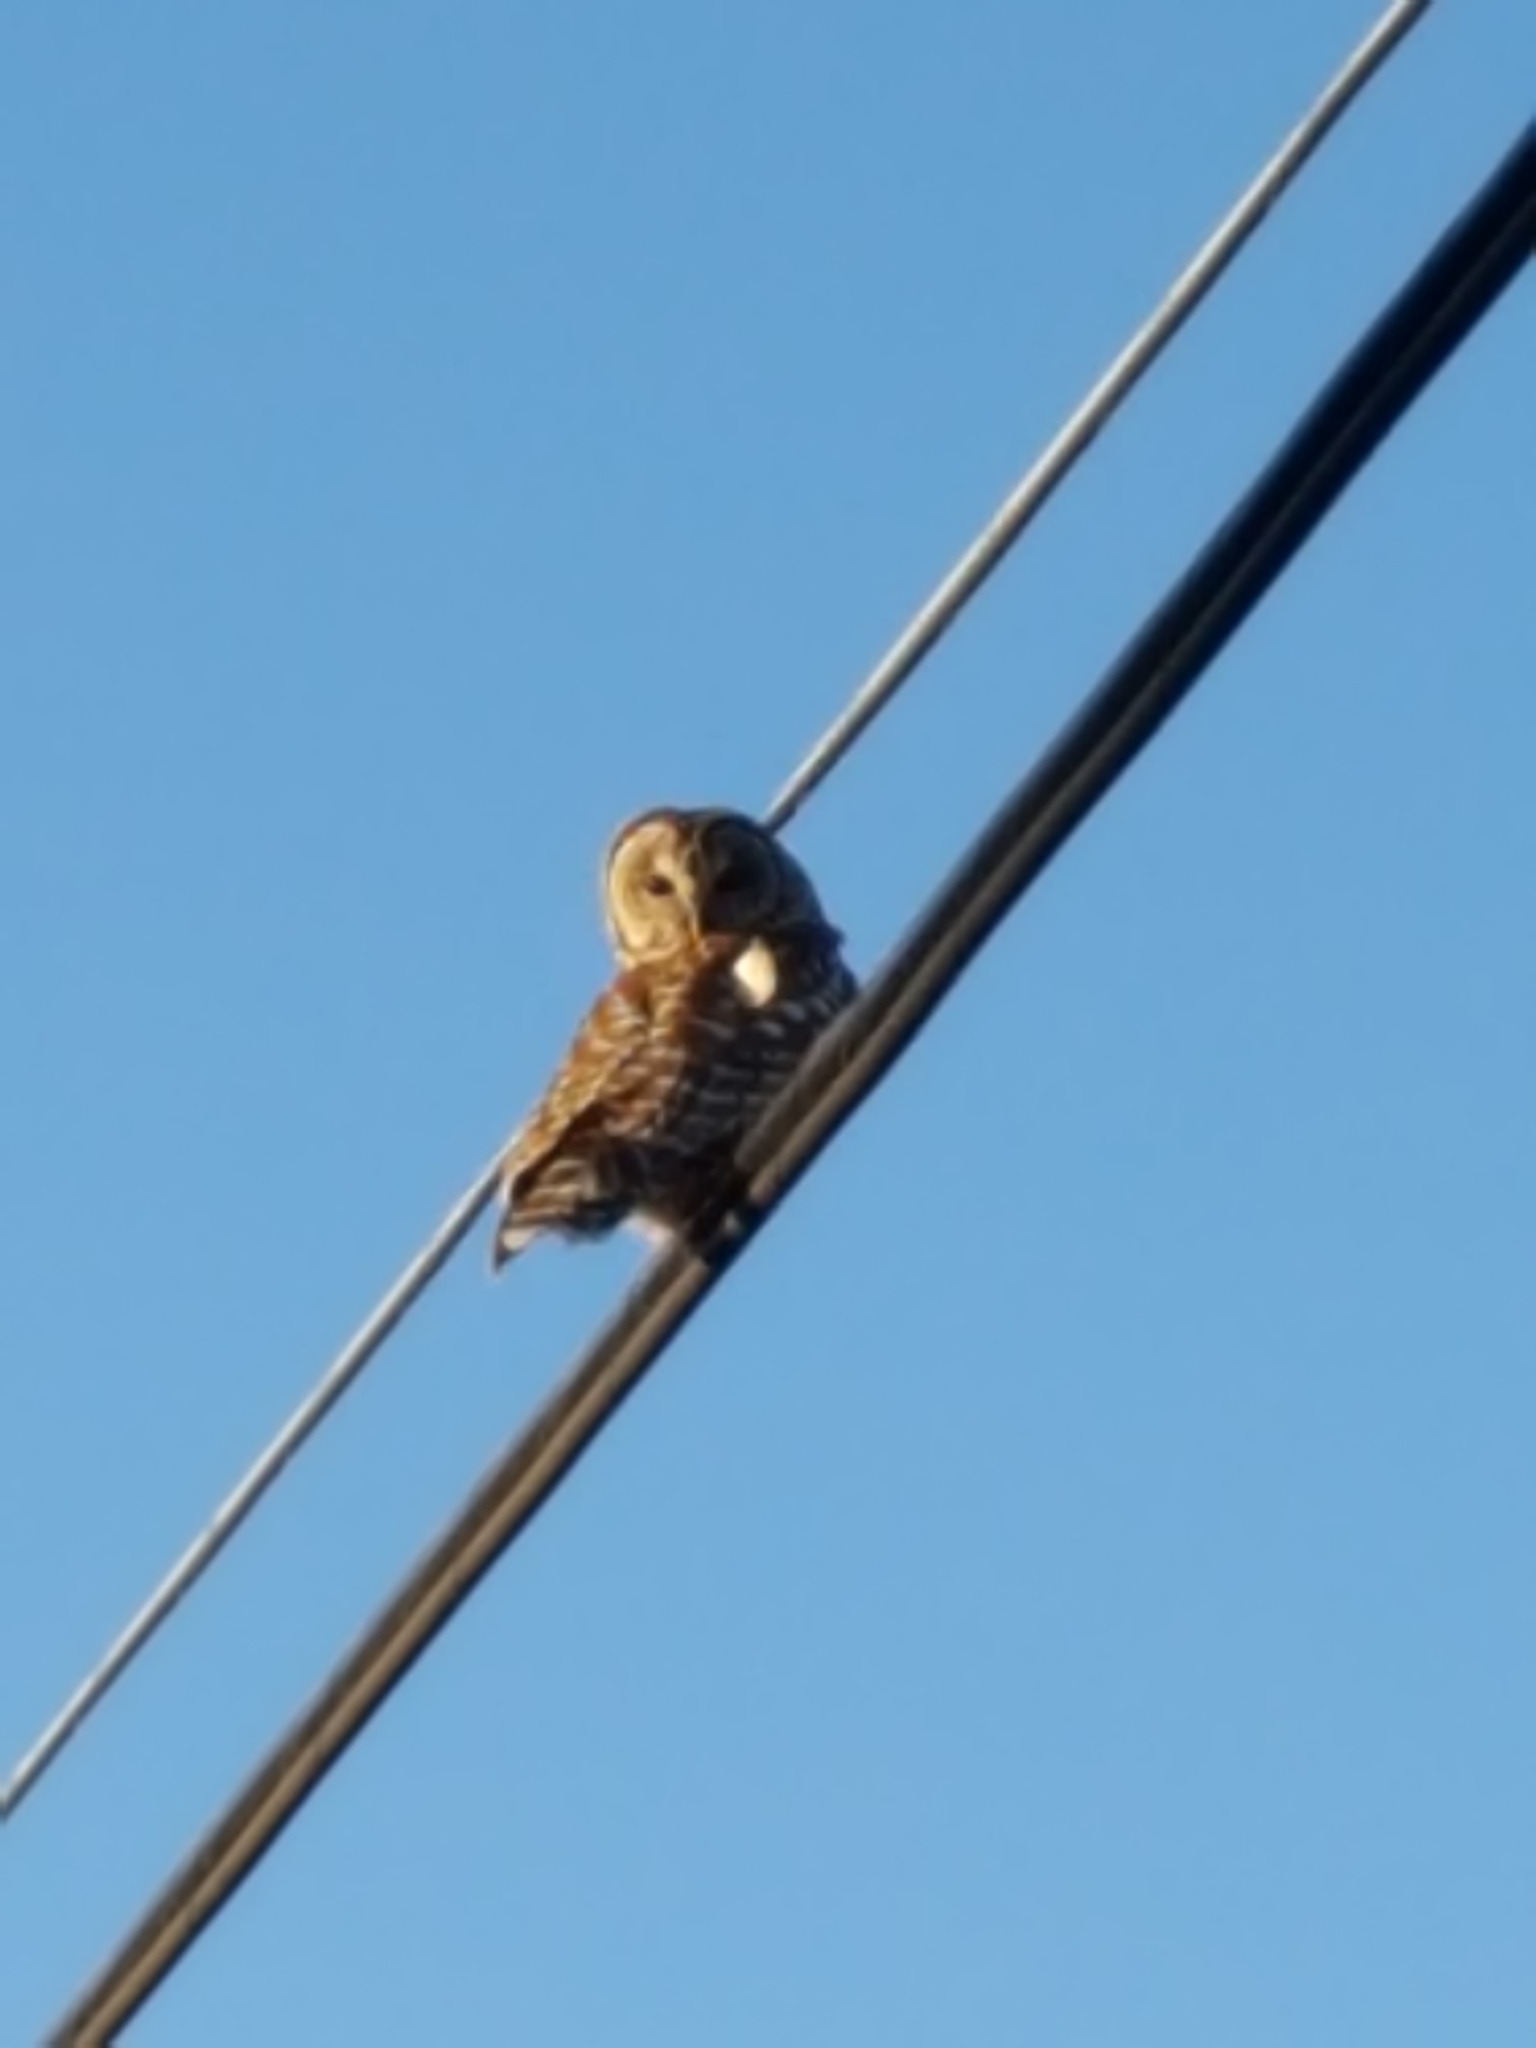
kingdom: Animalia
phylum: Chordata
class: Aves
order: Strigiformes
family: Strigidae
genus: Strix
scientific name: Strix varia
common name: Barred owl
